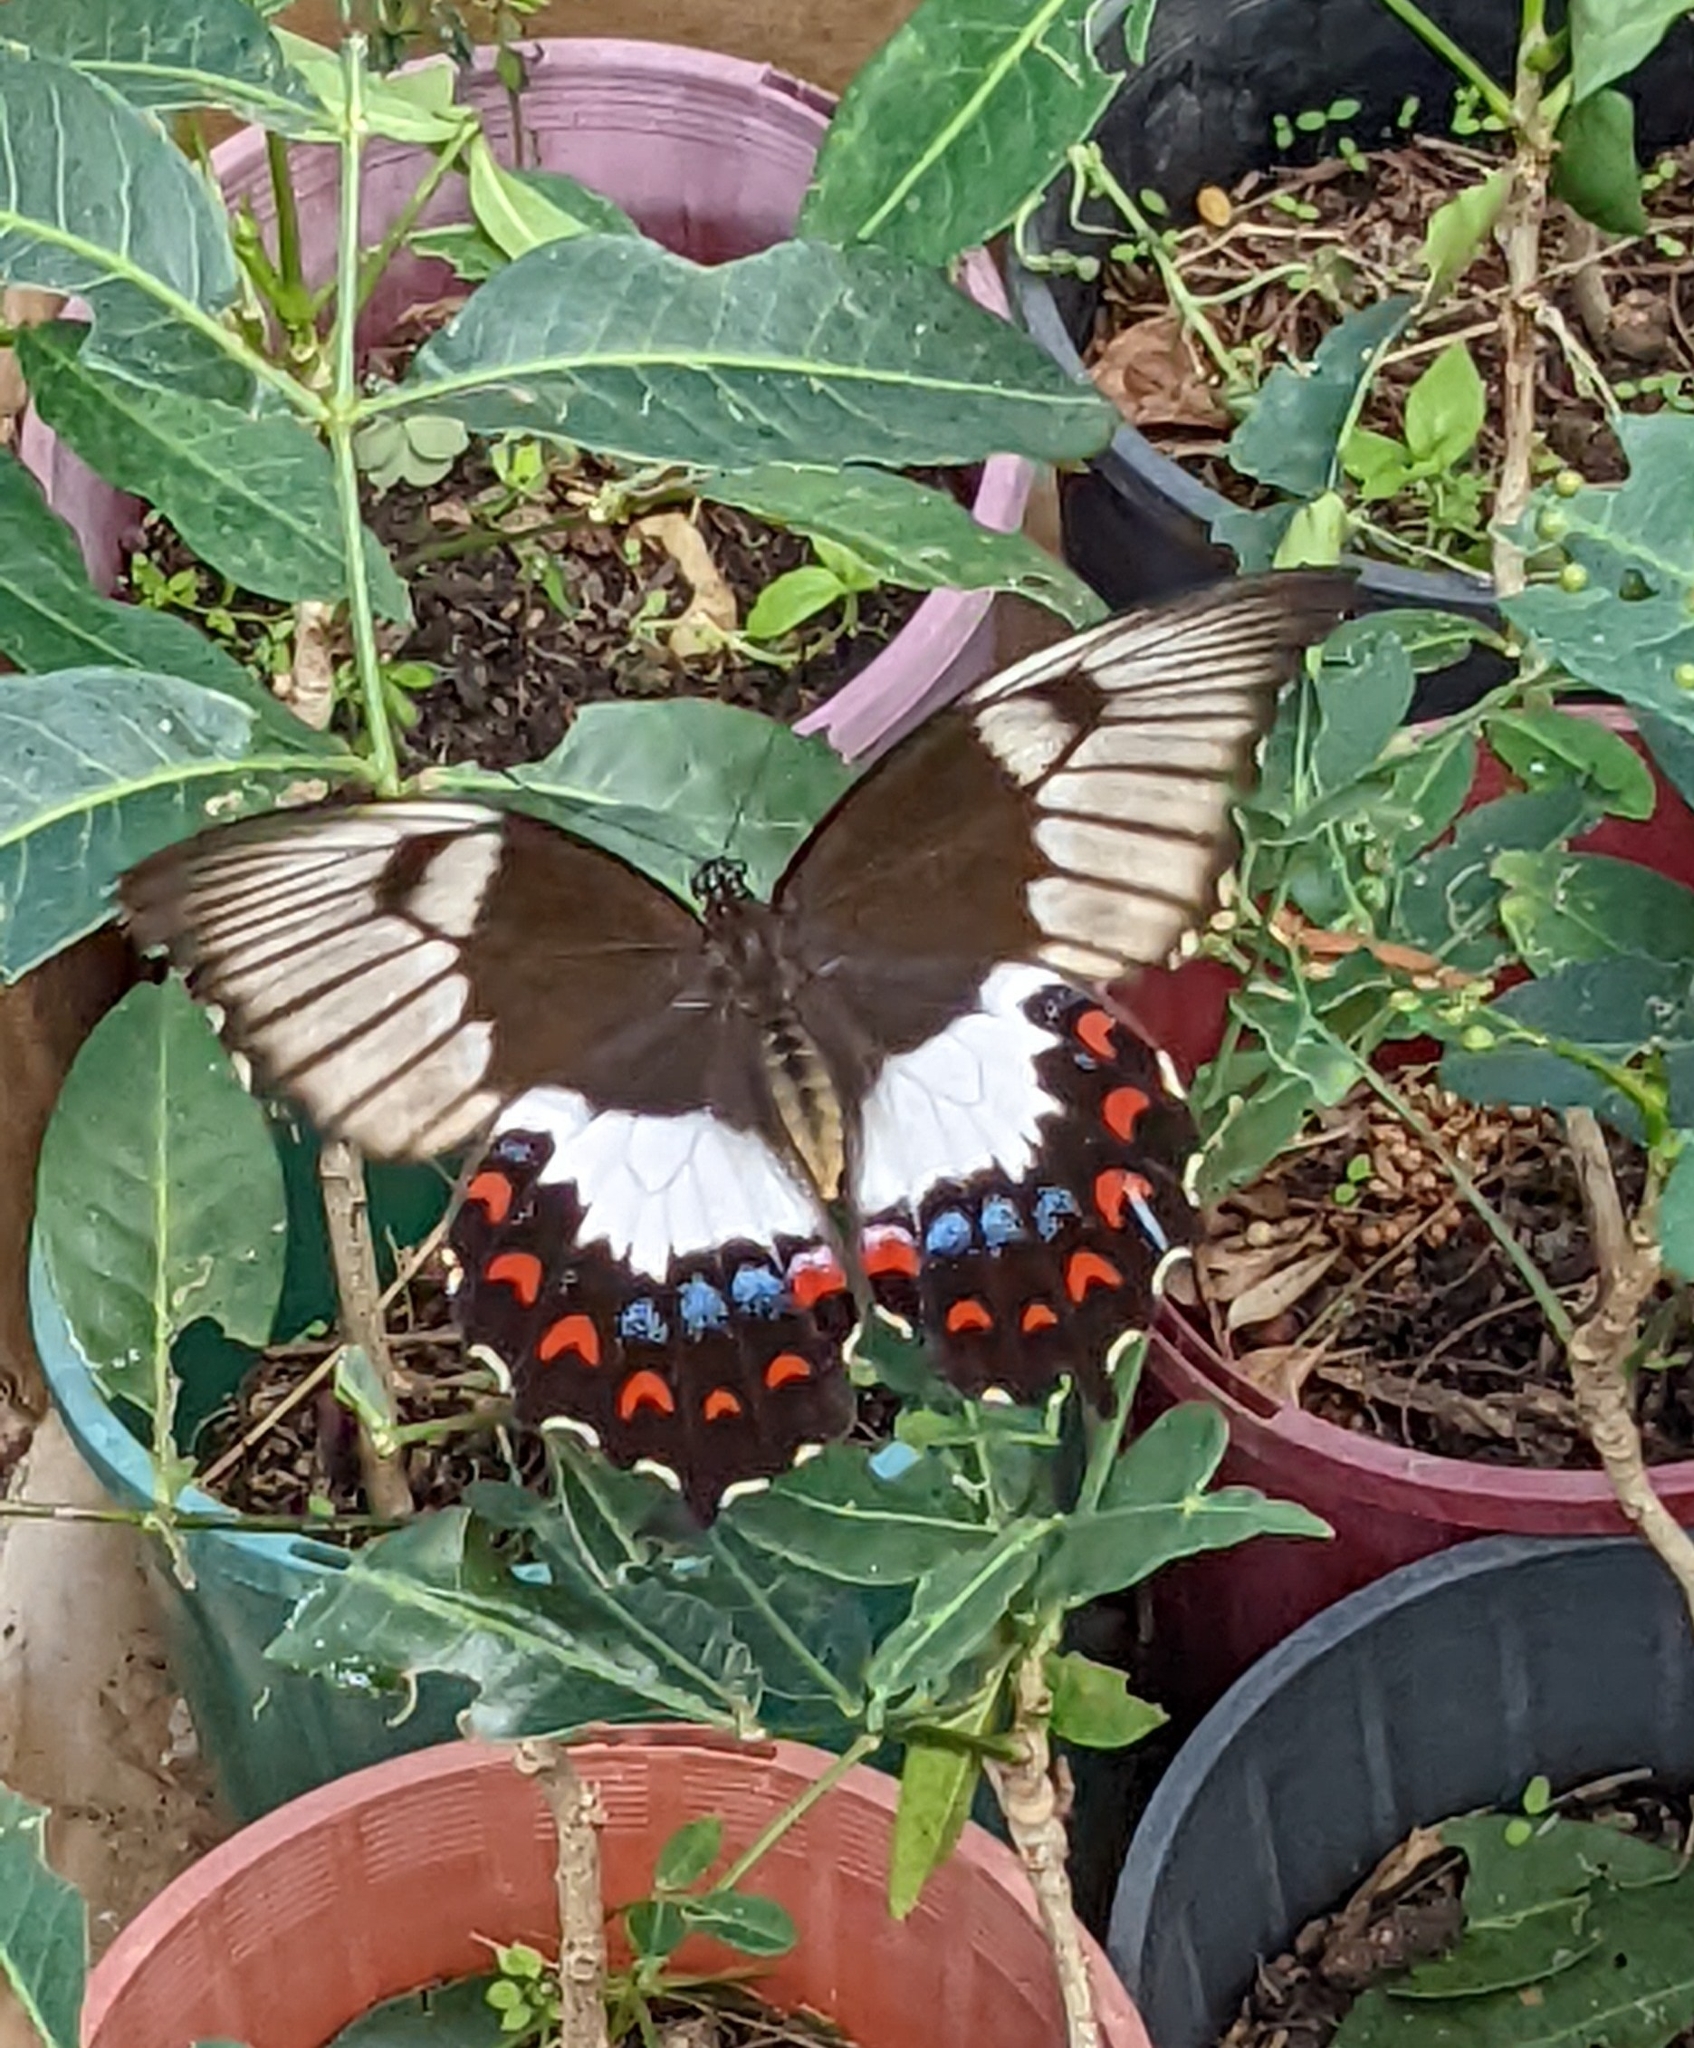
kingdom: Animalia
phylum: Arthropoda
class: Insecta
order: Lepidoptera
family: Papilionidae
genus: Papilio
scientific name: Papilio aegeus
